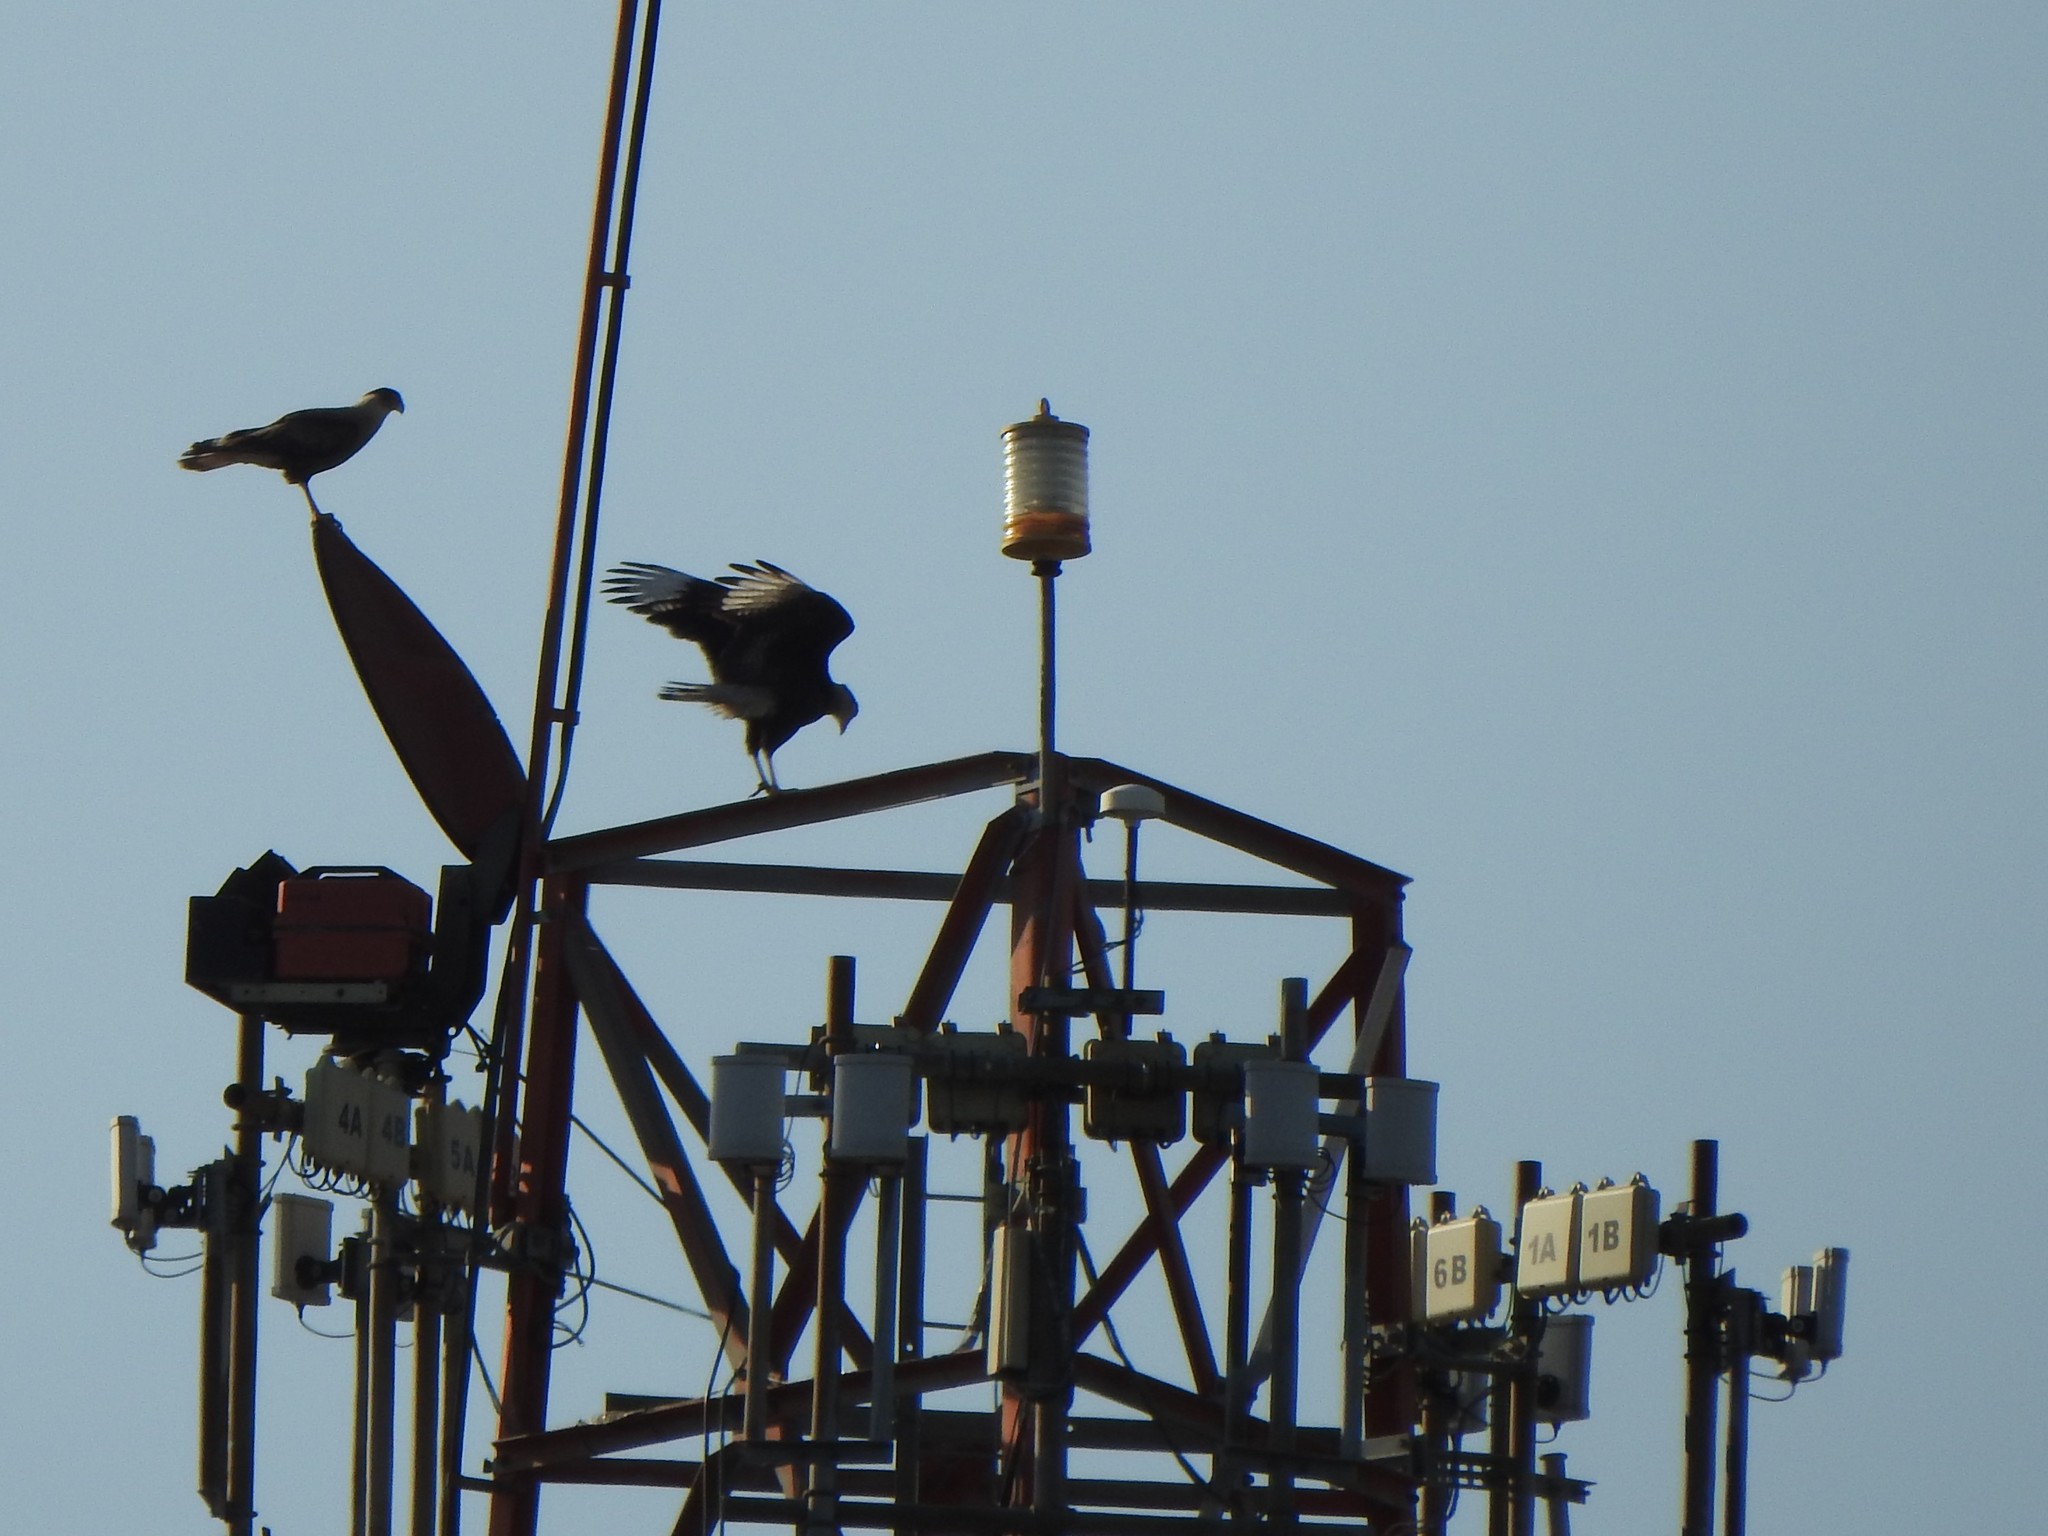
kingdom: Animalia
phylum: Chordata
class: Aves
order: Falconiformes
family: Falconidae
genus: Caracara
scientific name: Caracara plancus
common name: Southern caracara
